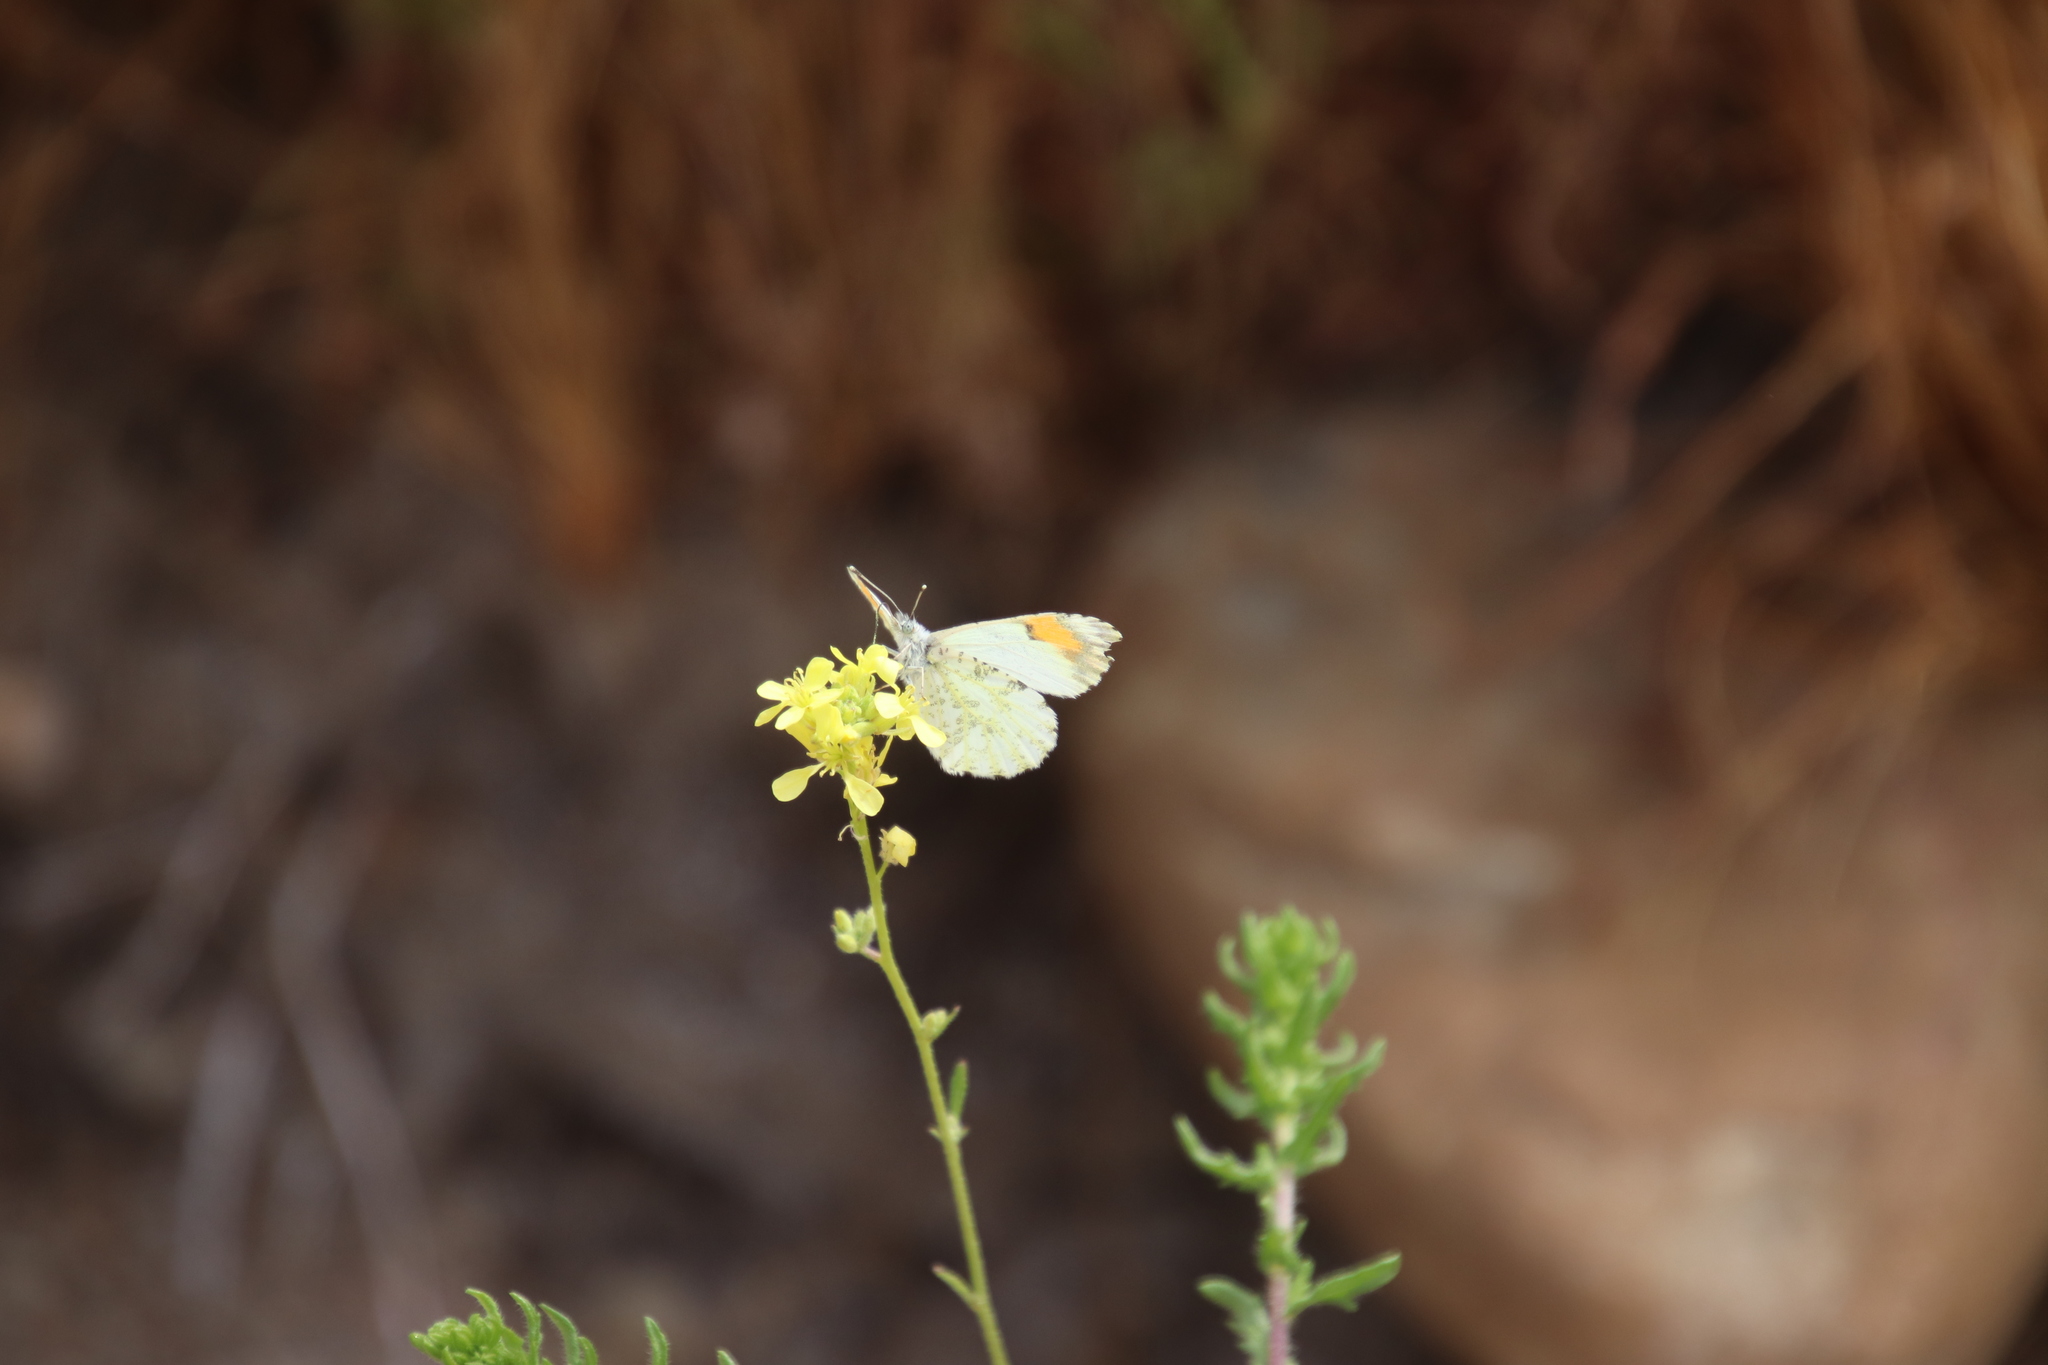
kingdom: Animalia
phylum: Arthropoda
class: Insecta
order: Lepidoptera
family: Pieridae
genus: Anthocharis
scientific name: Anthocharis sara
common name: Sara's orangetip
